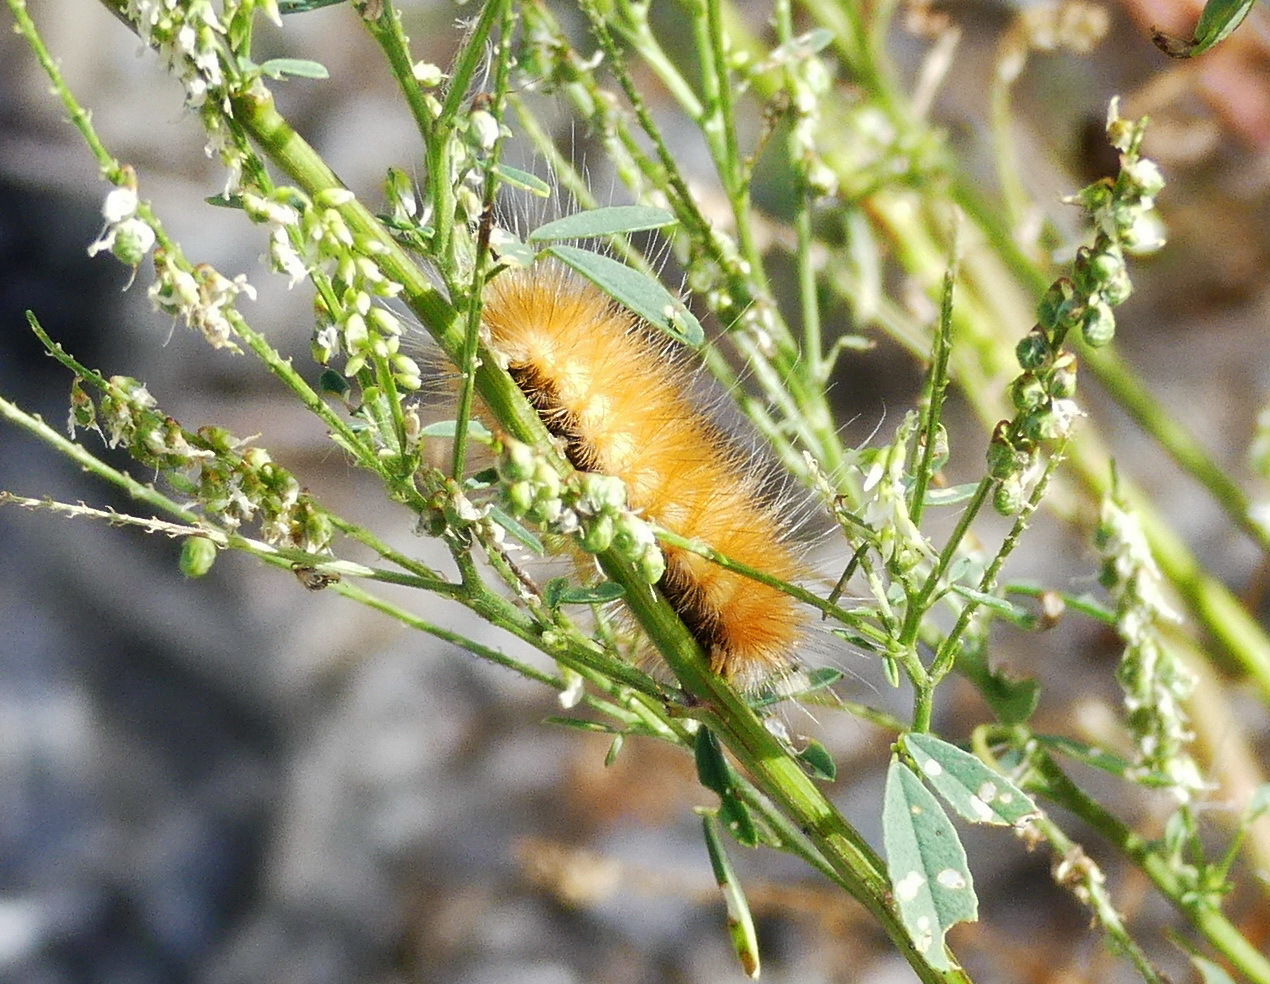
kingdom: Animalia
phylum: Arthropoda
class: Insecta
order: Lepidoptera
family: Erebidae
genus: Spilosoma
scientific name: Spilosoma virginica
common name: Virginia tiger moth
